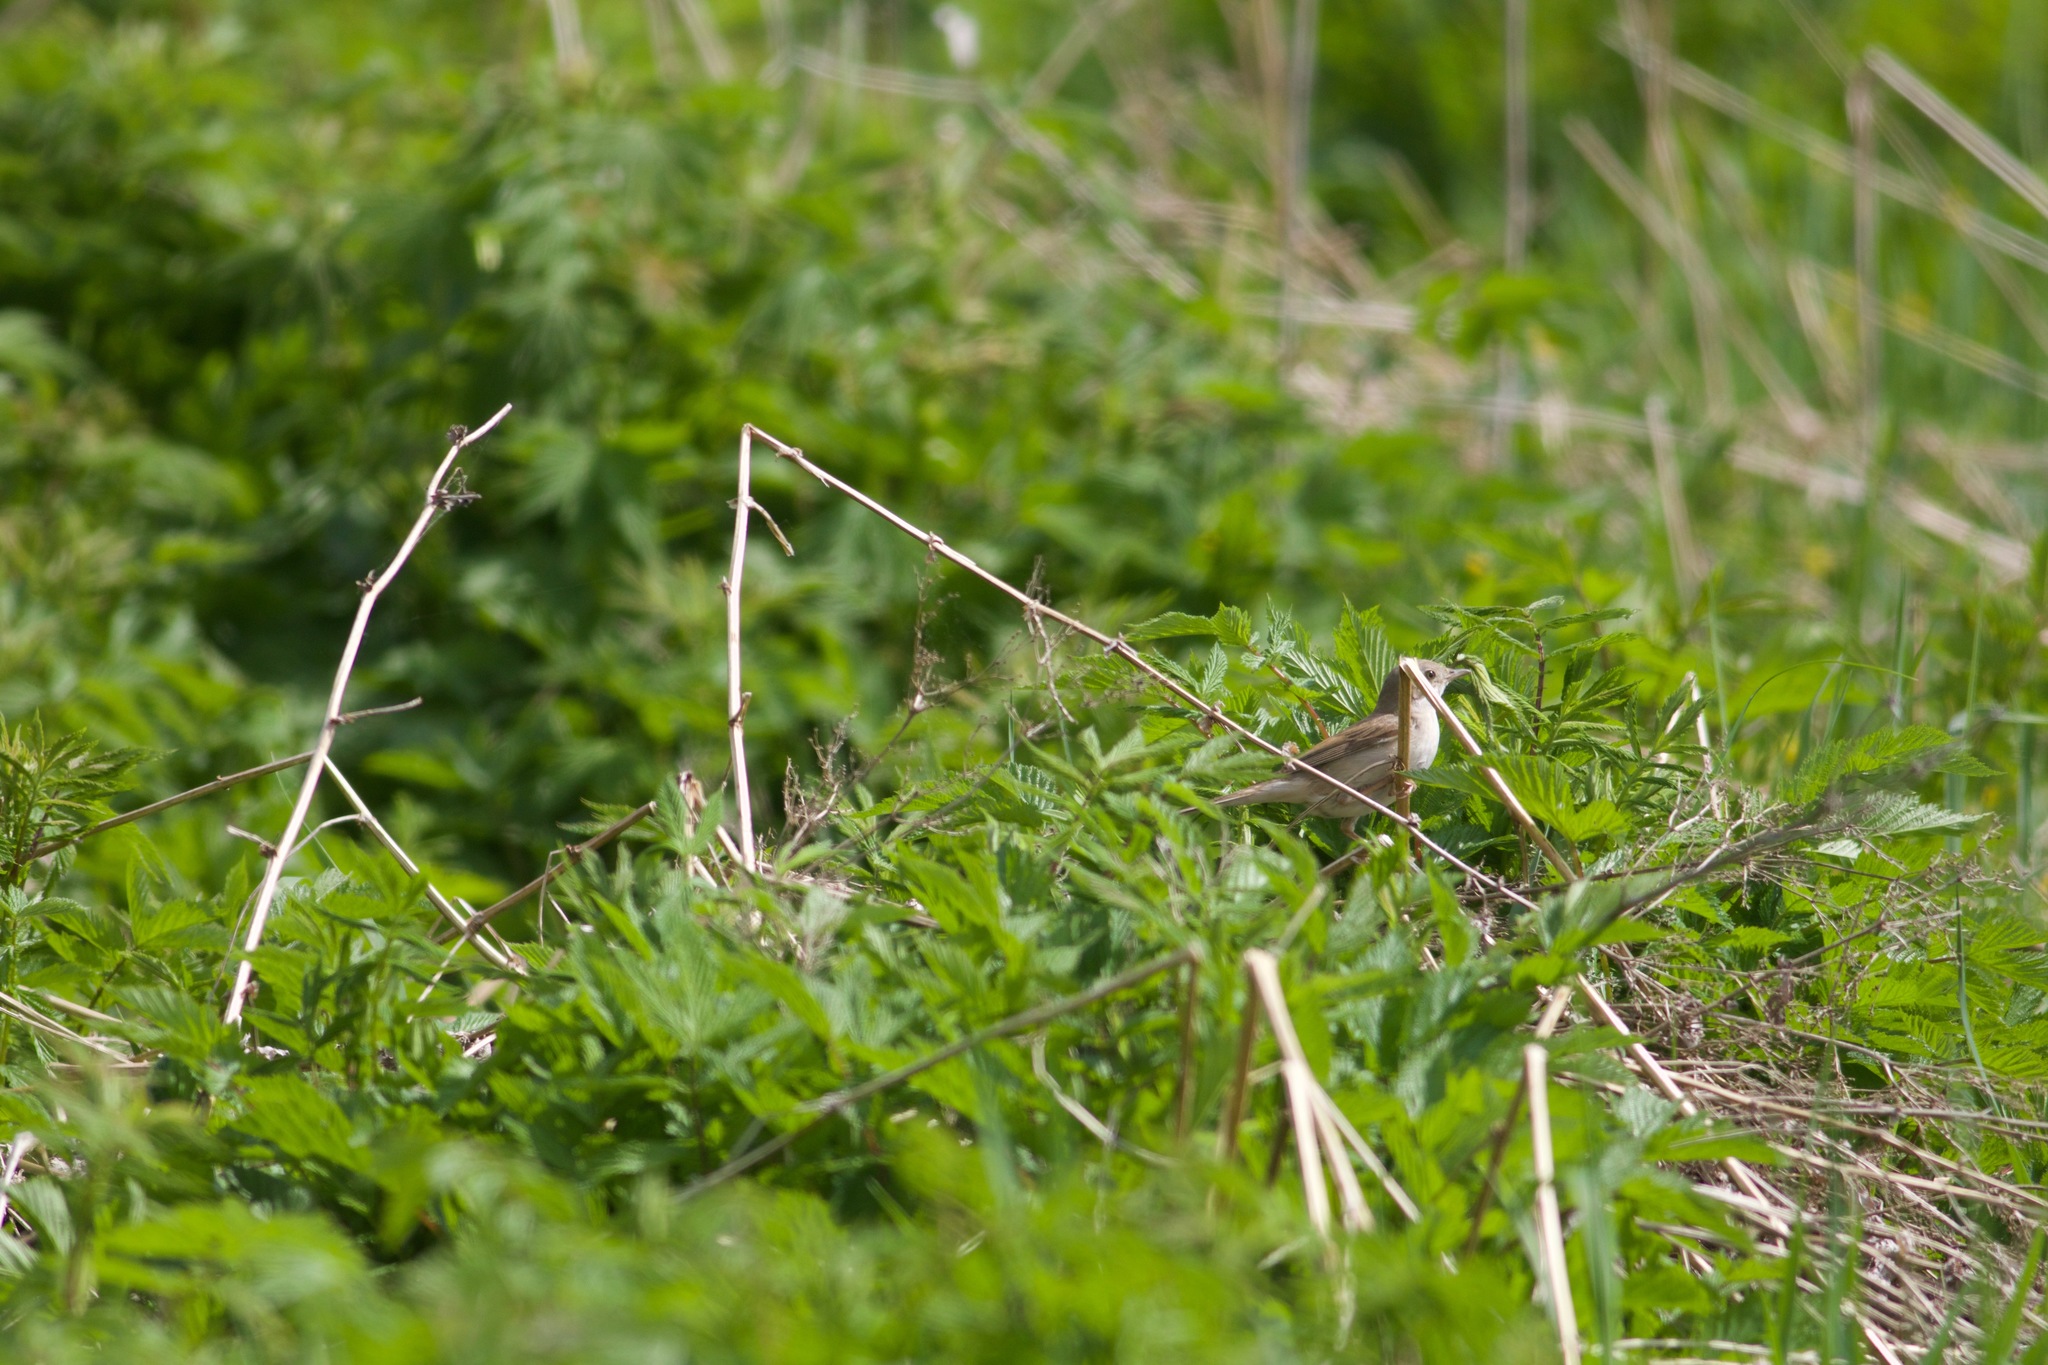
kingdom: Animalia
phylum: Chordata
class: Aves
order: Passeriformes
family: Sylviidae
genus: Sylvia
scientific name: Sylvia communis
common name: Common whitethroat
